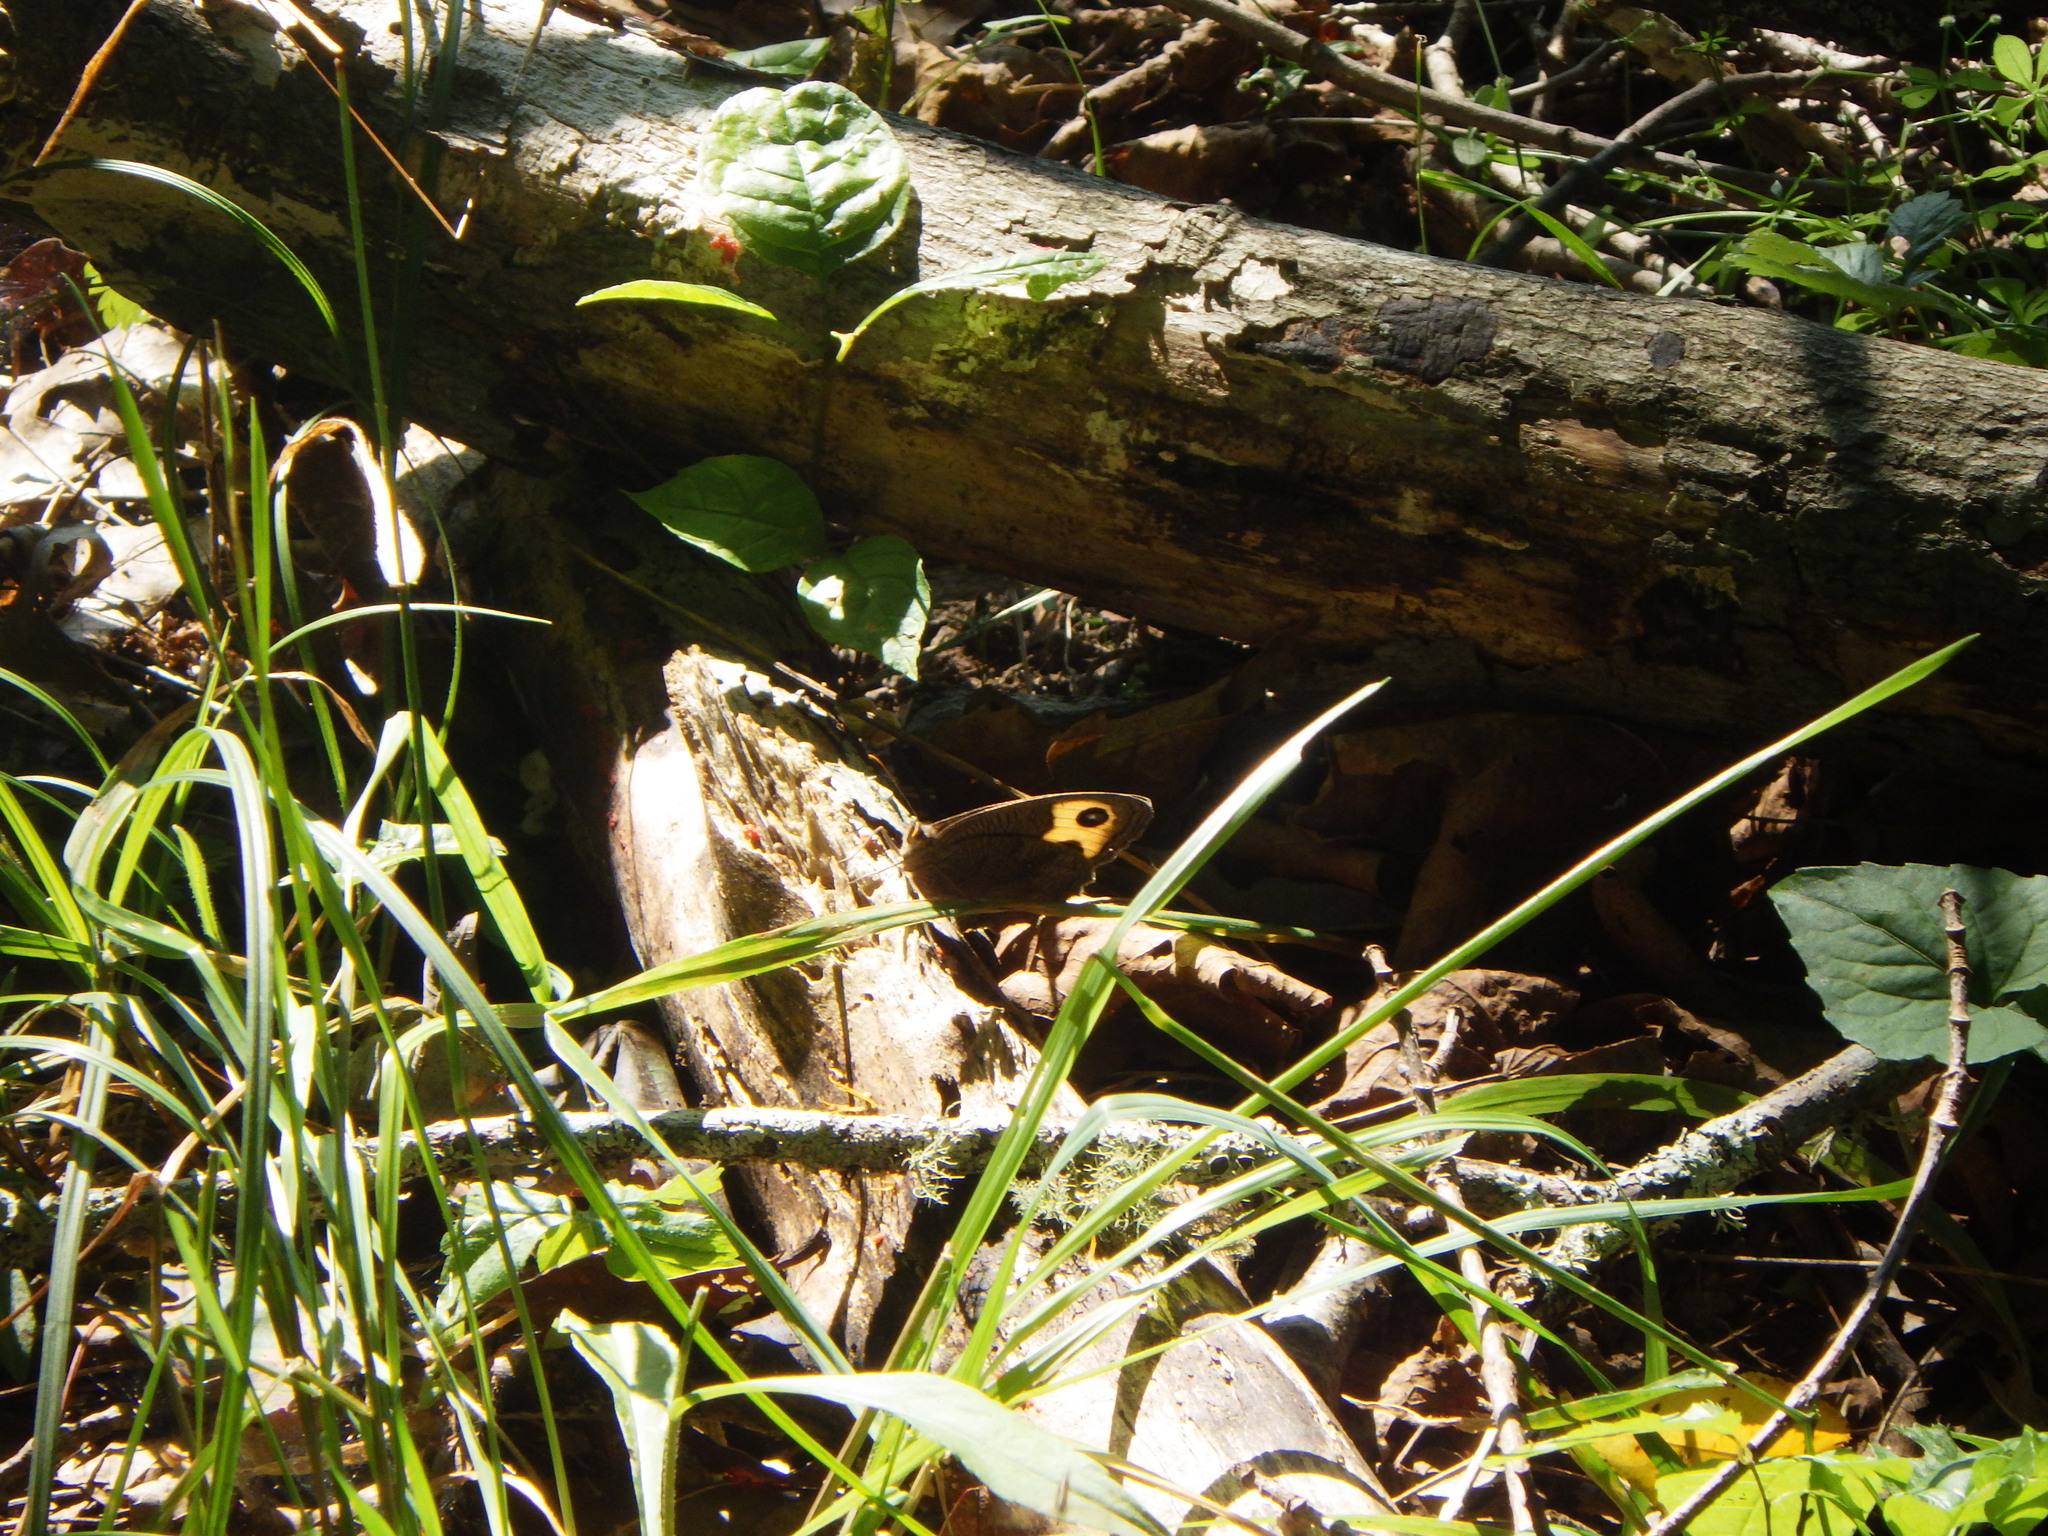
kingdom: Animalia
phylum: Arthropoda
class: Insecta
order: Lepidoptera
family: Nymphalidae
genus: Cercyonis
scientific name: Cercyonis pegala
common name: Common wood-nymph
